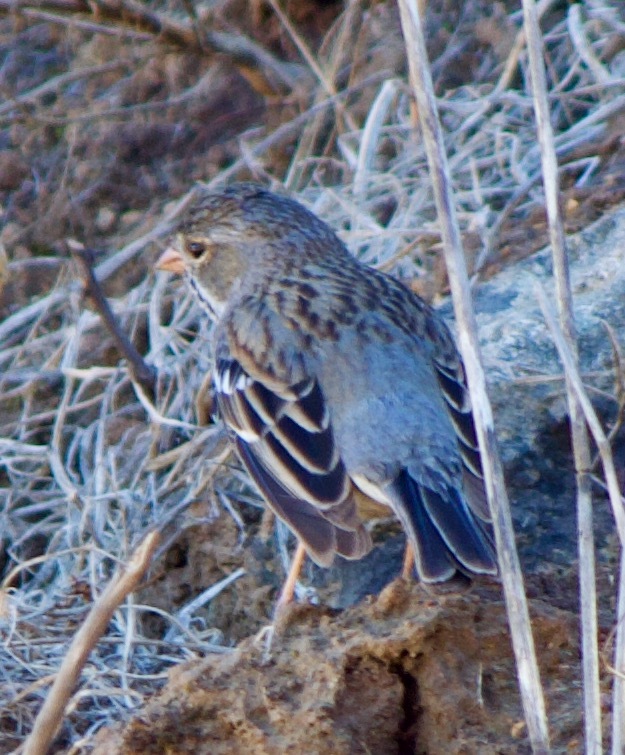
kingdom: Animalia
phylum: Chordata
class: Aves
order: Passeriformes
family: Thraupidae
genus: Rhopospina
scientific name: Rhopospina fruticeti
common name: Mourning sierra finch
